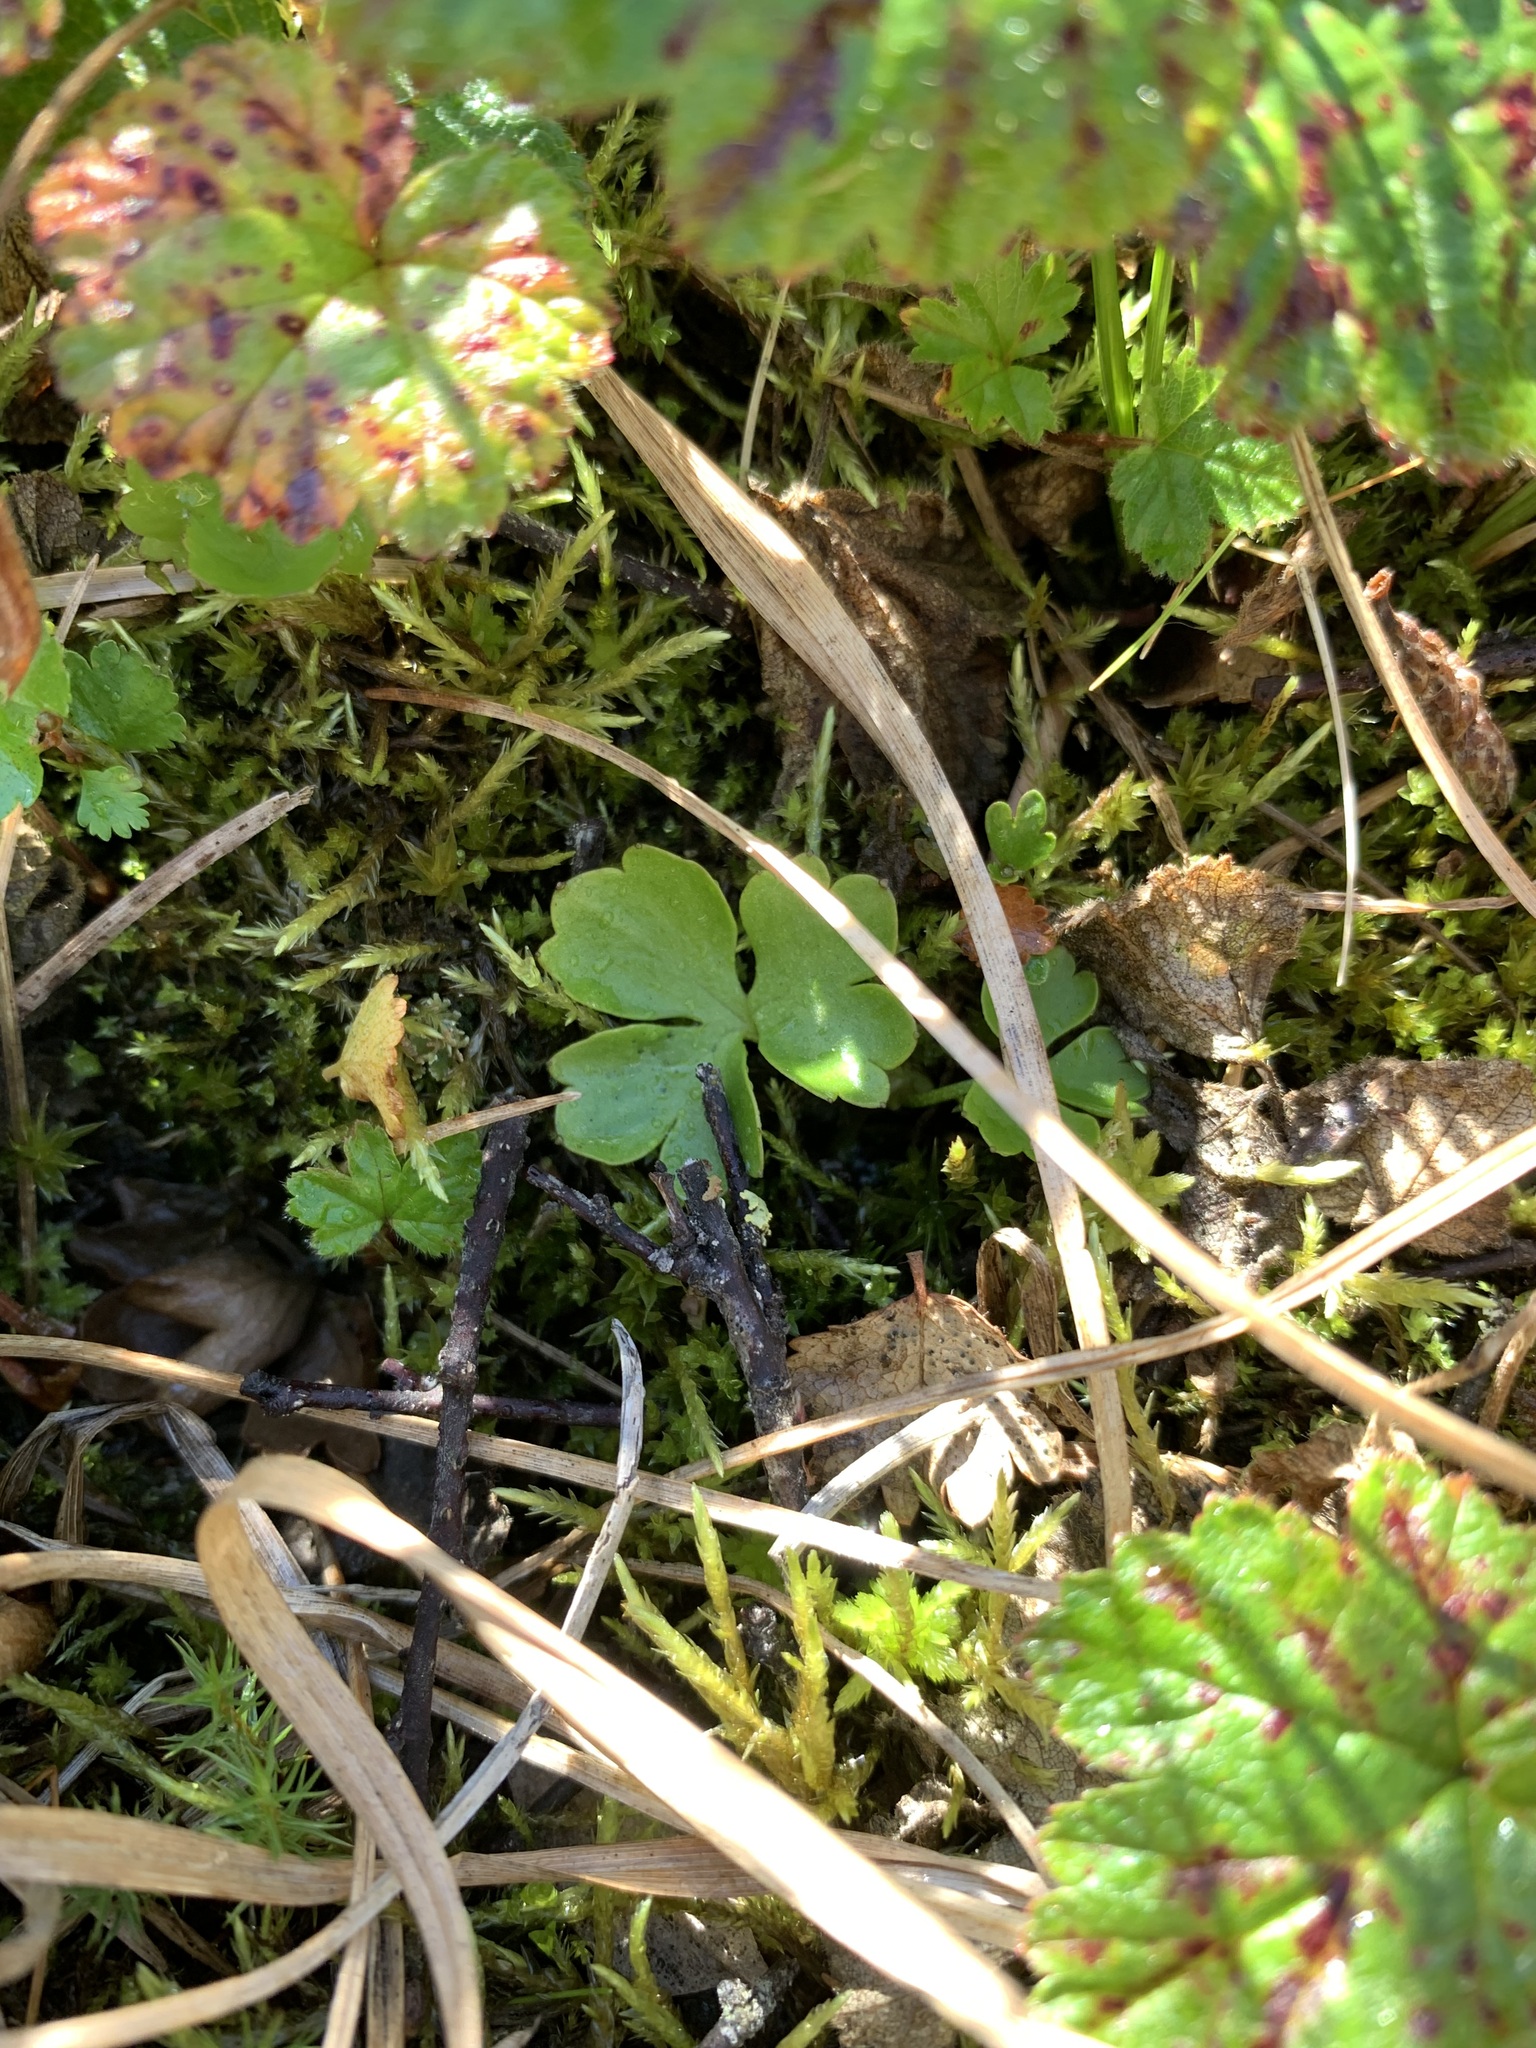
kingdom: Plantae
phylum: Tracheophyta
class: Magnoliopsida
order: Ranunculales
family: Ranunculaceae
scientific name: Ranunculaceae
